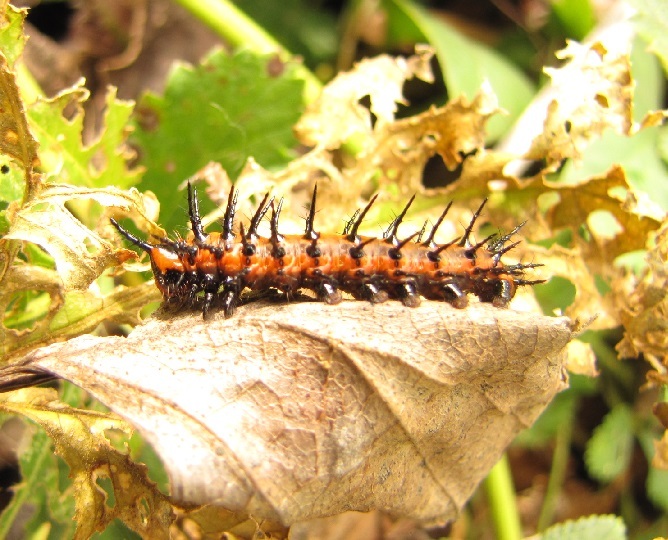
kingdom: Animalia
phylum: Arthropoda
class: Insecta
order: Lepidoptera
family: Nymphalidae
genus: Dione
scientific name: Dione vanillae
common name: Gulf fritillary
